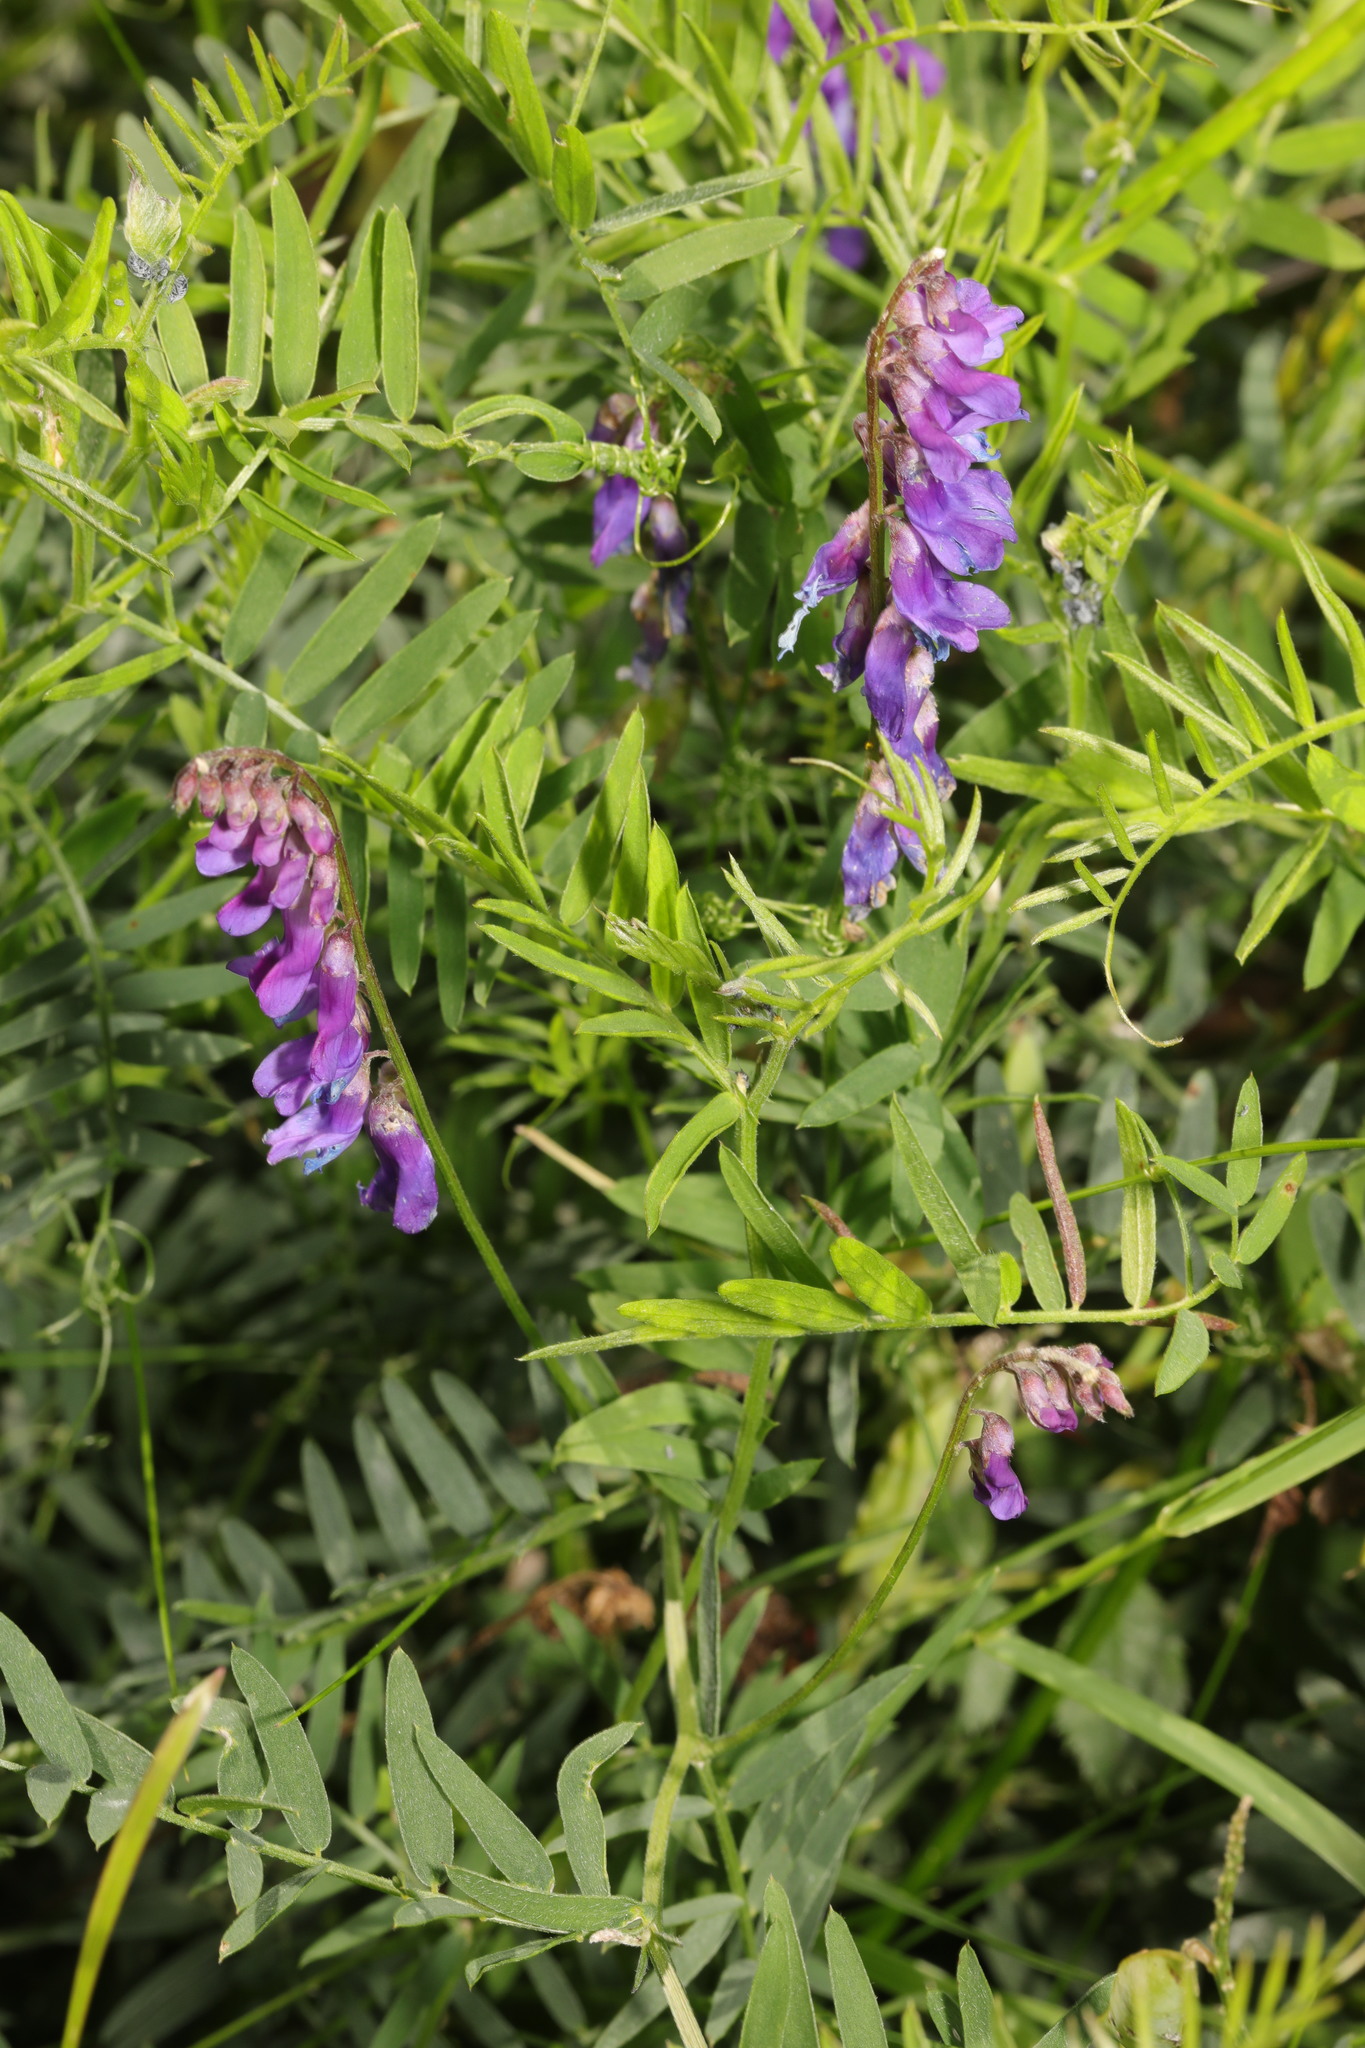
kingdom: Plantae
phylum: Tracheophyta
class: Magnoliopsida
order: Fabales
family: Fabaceae
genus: Vicia
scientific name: Vicia cracca
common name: Bird vetch
